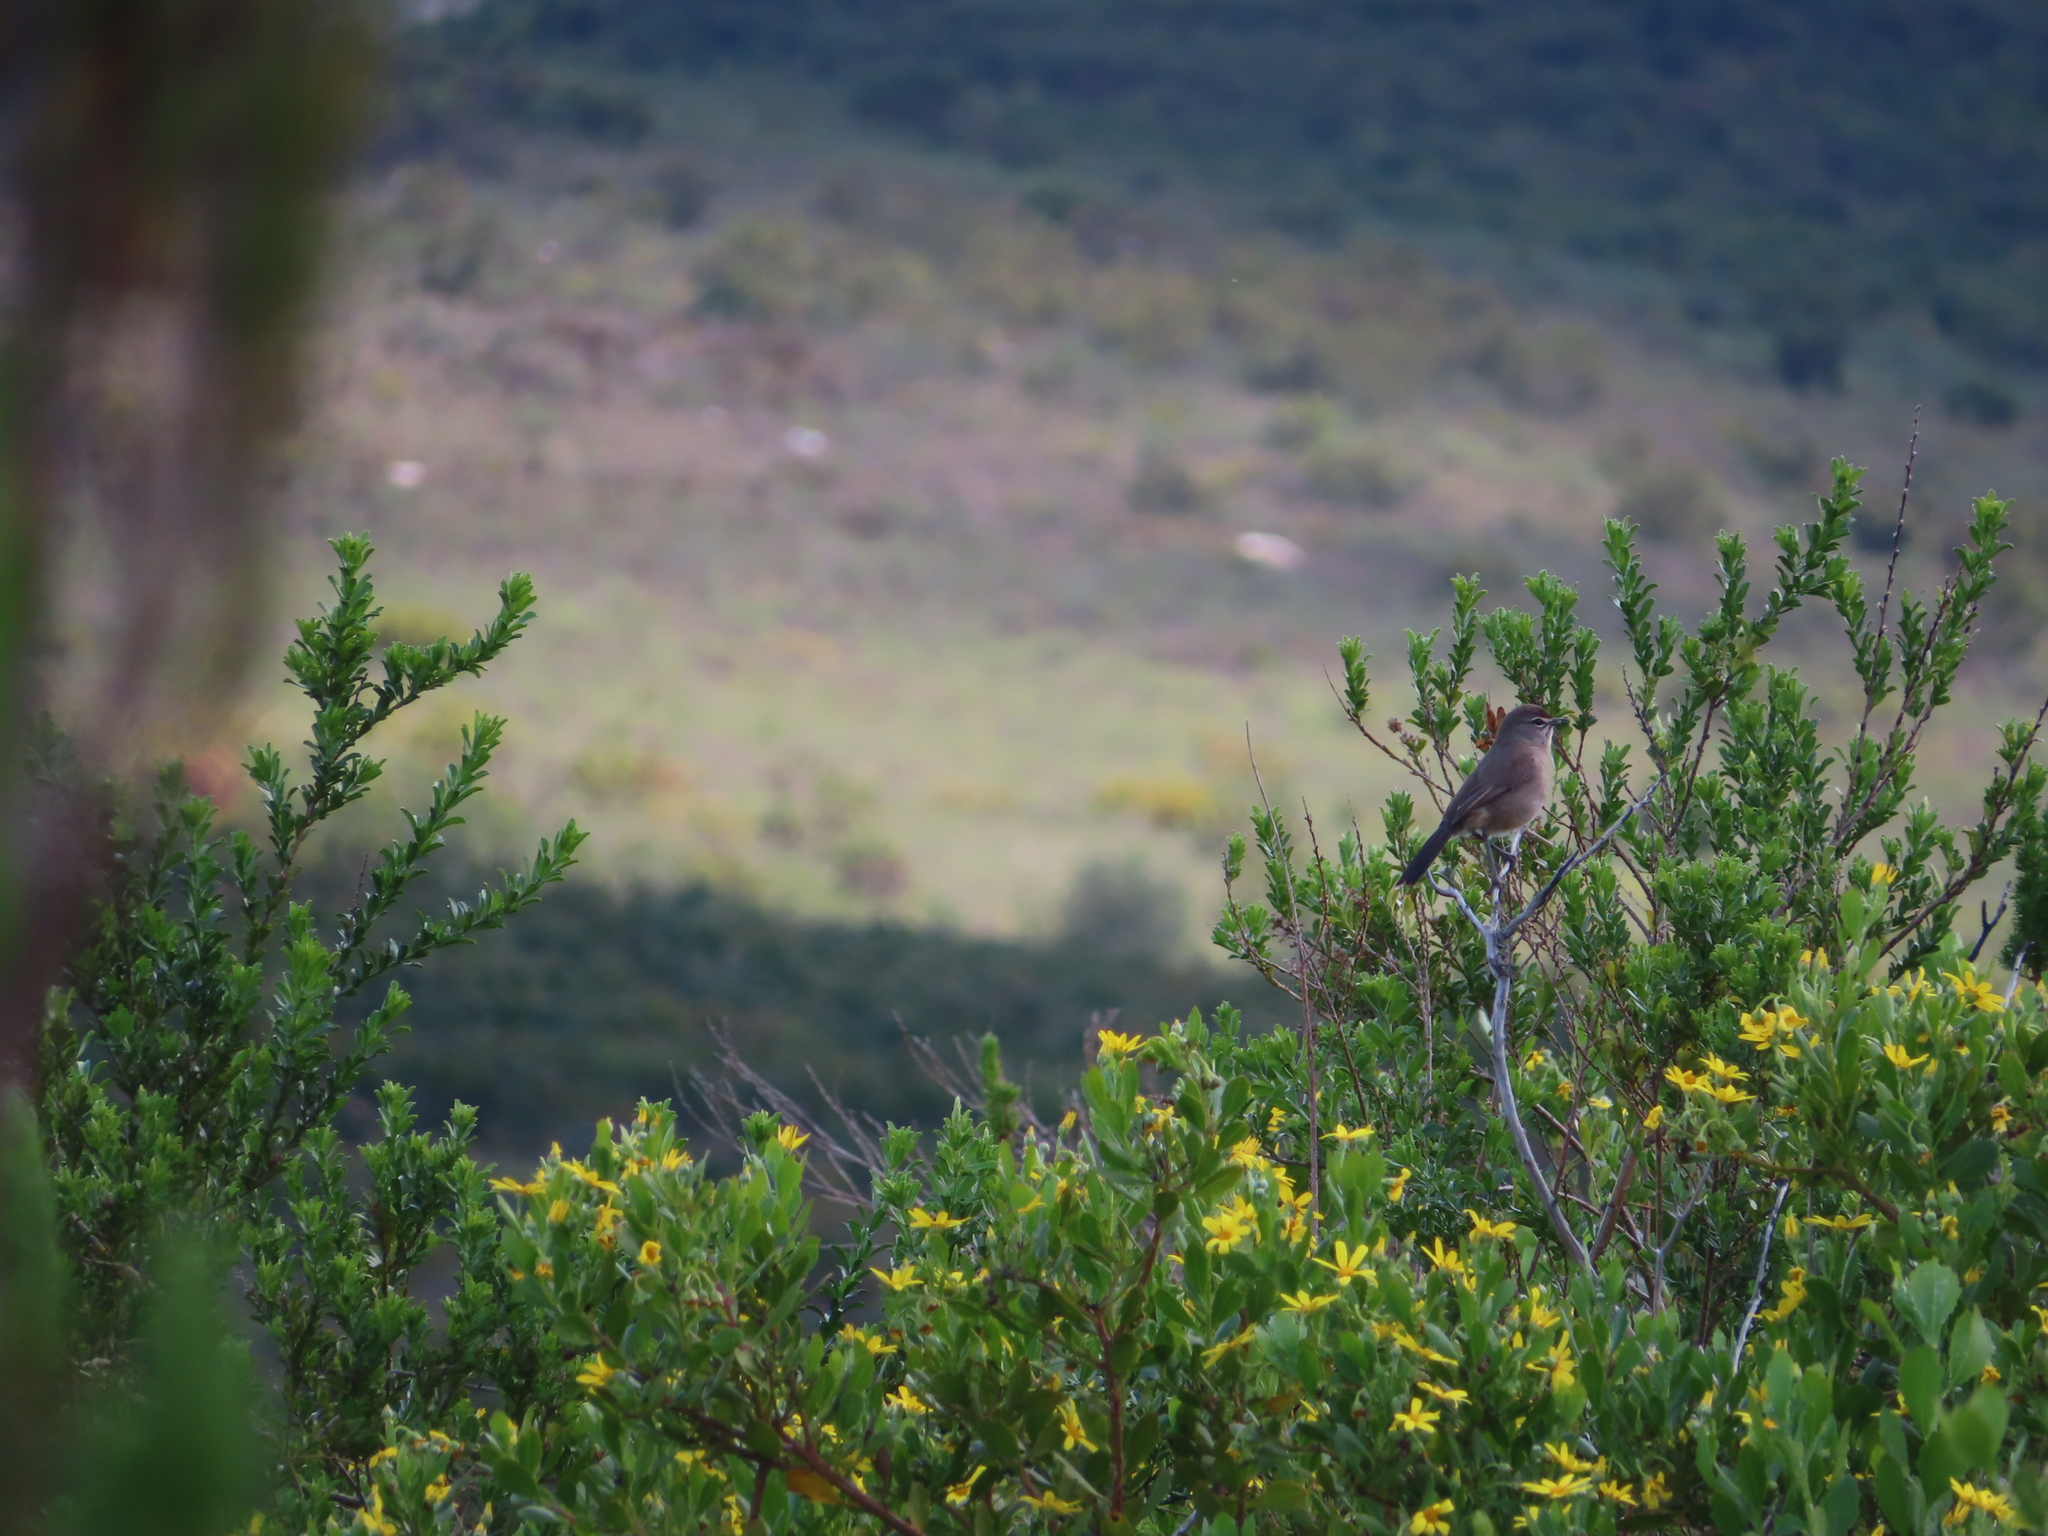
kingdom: Animalia
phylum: Chordata
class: Aves
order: Passeriformes
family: Muscicapidae
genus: Erythropygia
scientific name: Erythropygia coryphoeus
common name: Karoo scrub robin
